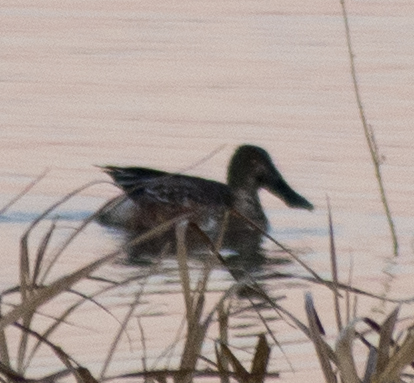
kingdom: Animalia
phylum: Chordata
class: Aves
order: Anseriformes
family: Anatidae
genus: Spatula
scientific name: Spatula clypeata
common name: Northern shoveler
